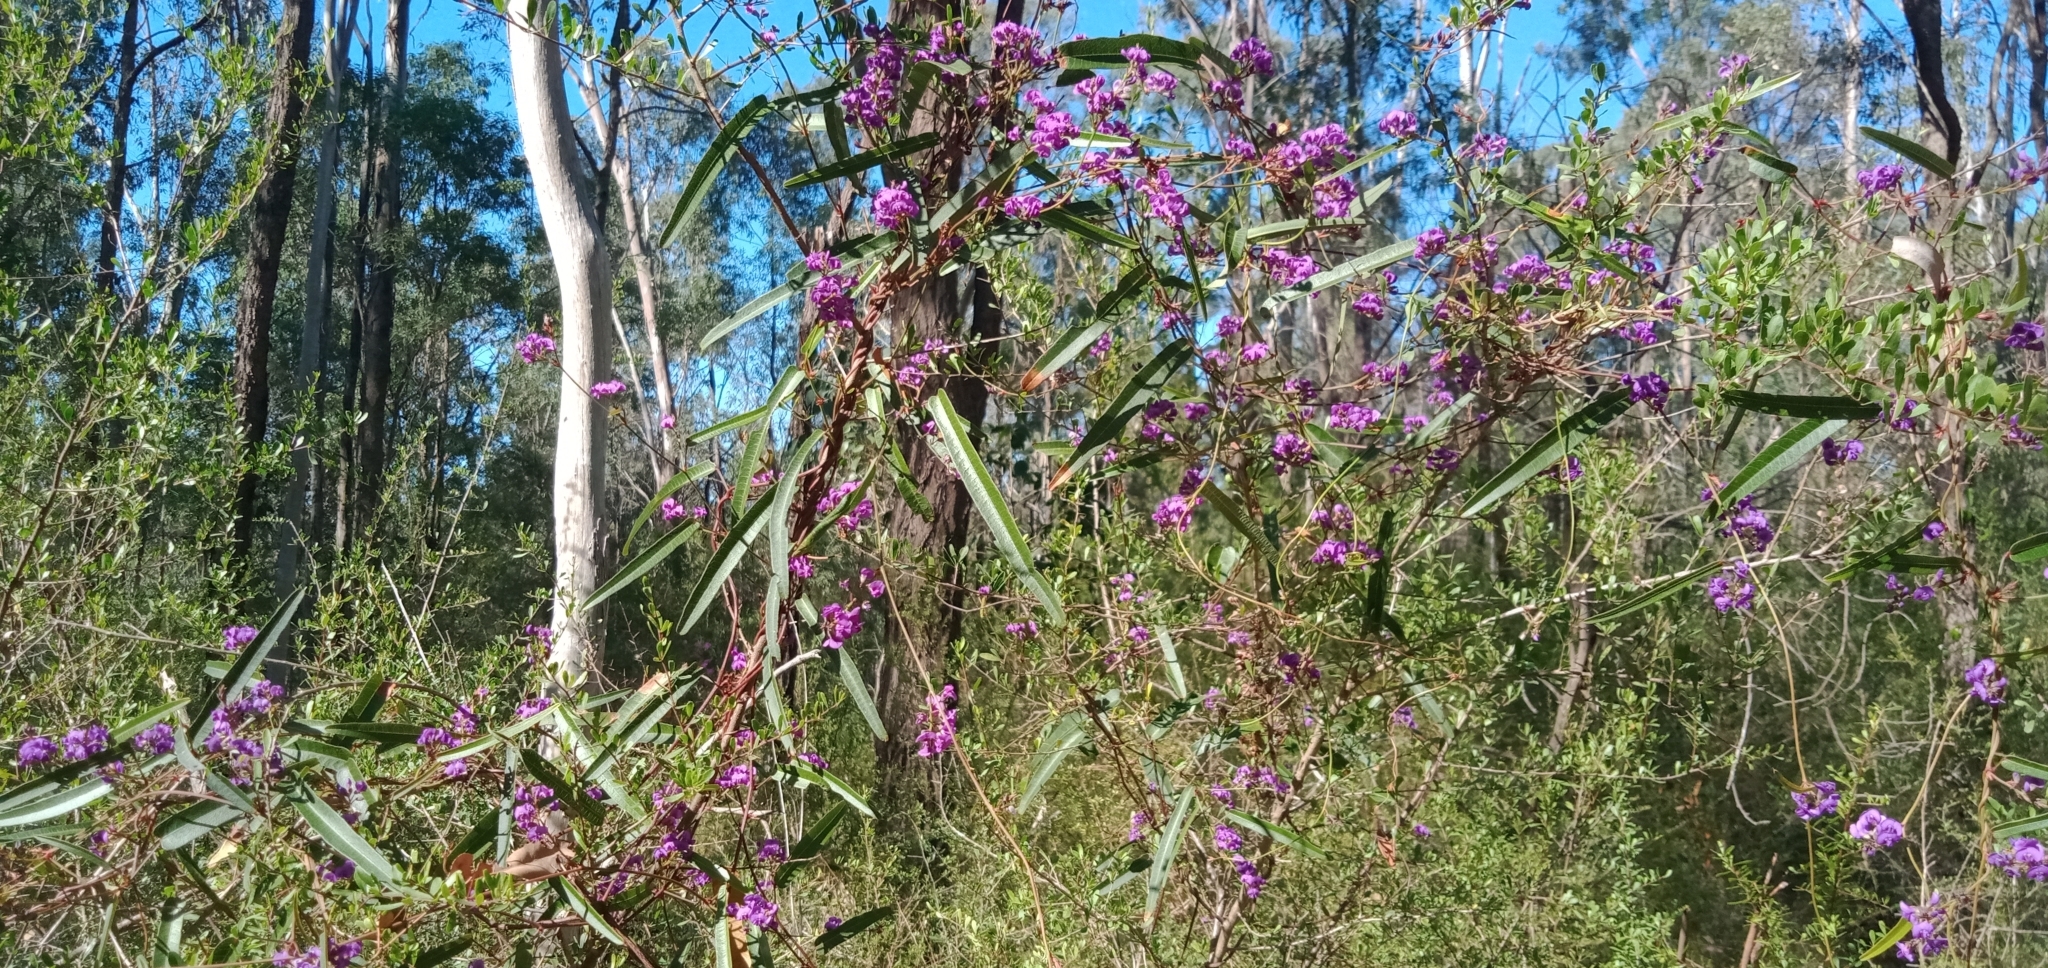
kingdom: Plantae
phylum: Tracheophyta
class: Magnoliopsida
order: Fabales
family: Fabaceae
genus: Hardenbergia
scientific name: Hardenbergia violacea
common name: Coral-pea
